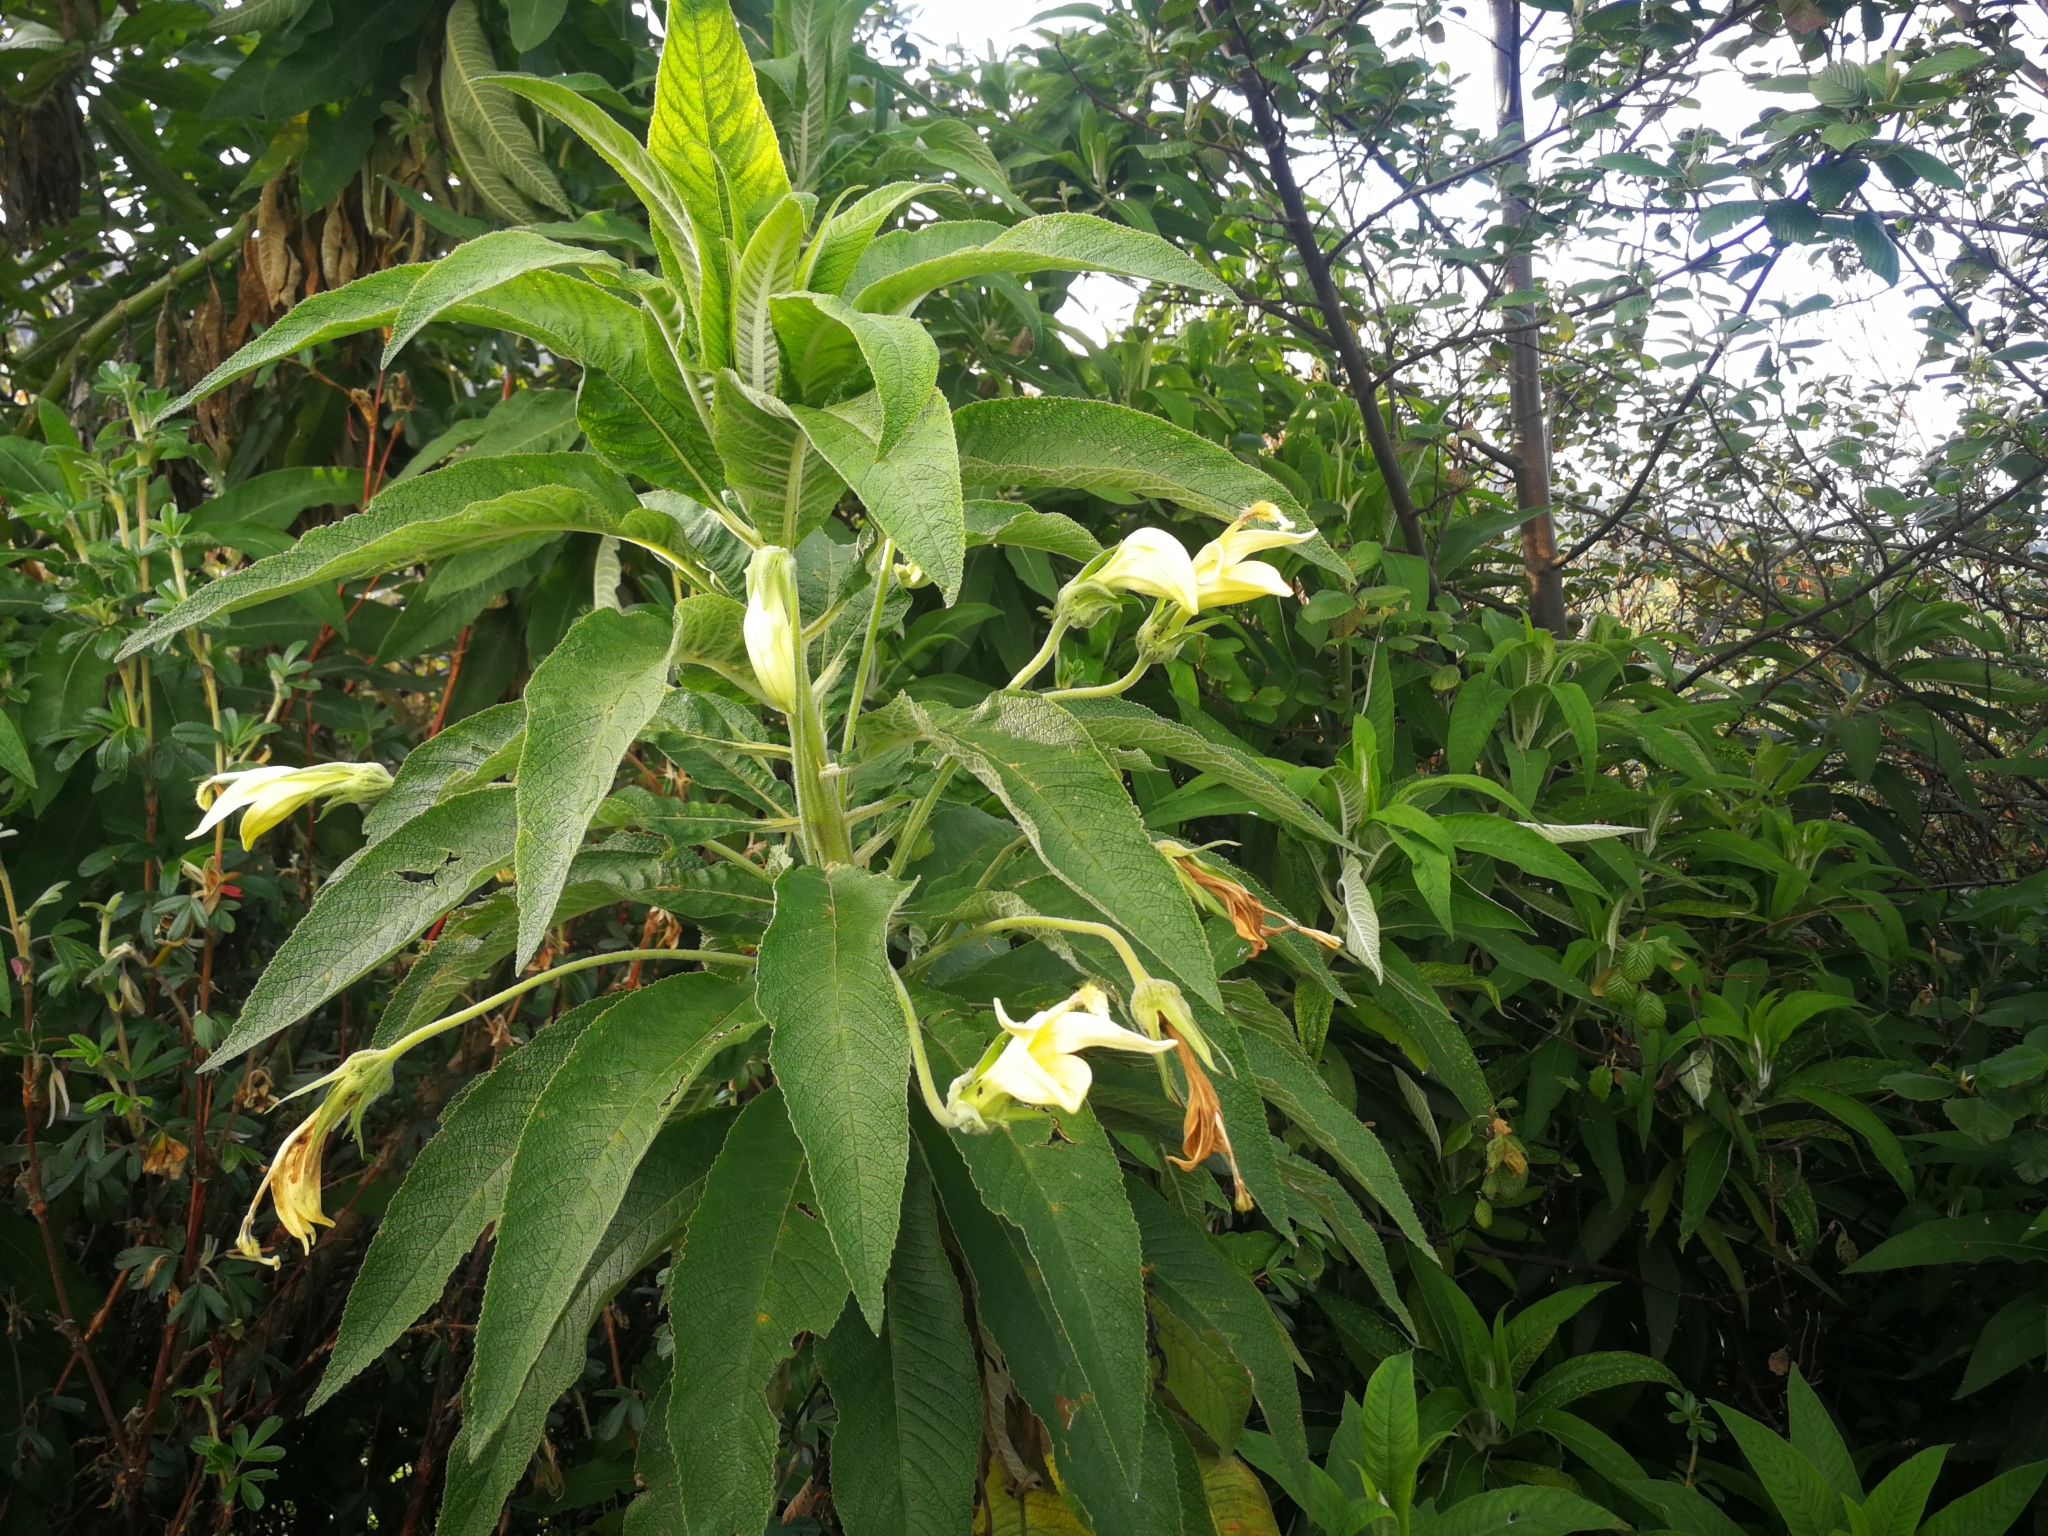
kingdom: Plantae
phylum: Tracheophyta
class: Magnoliopsida
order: Asterales
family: Campanulaceae
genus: Siphocampylus
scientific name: Siphocampylus giganteus
